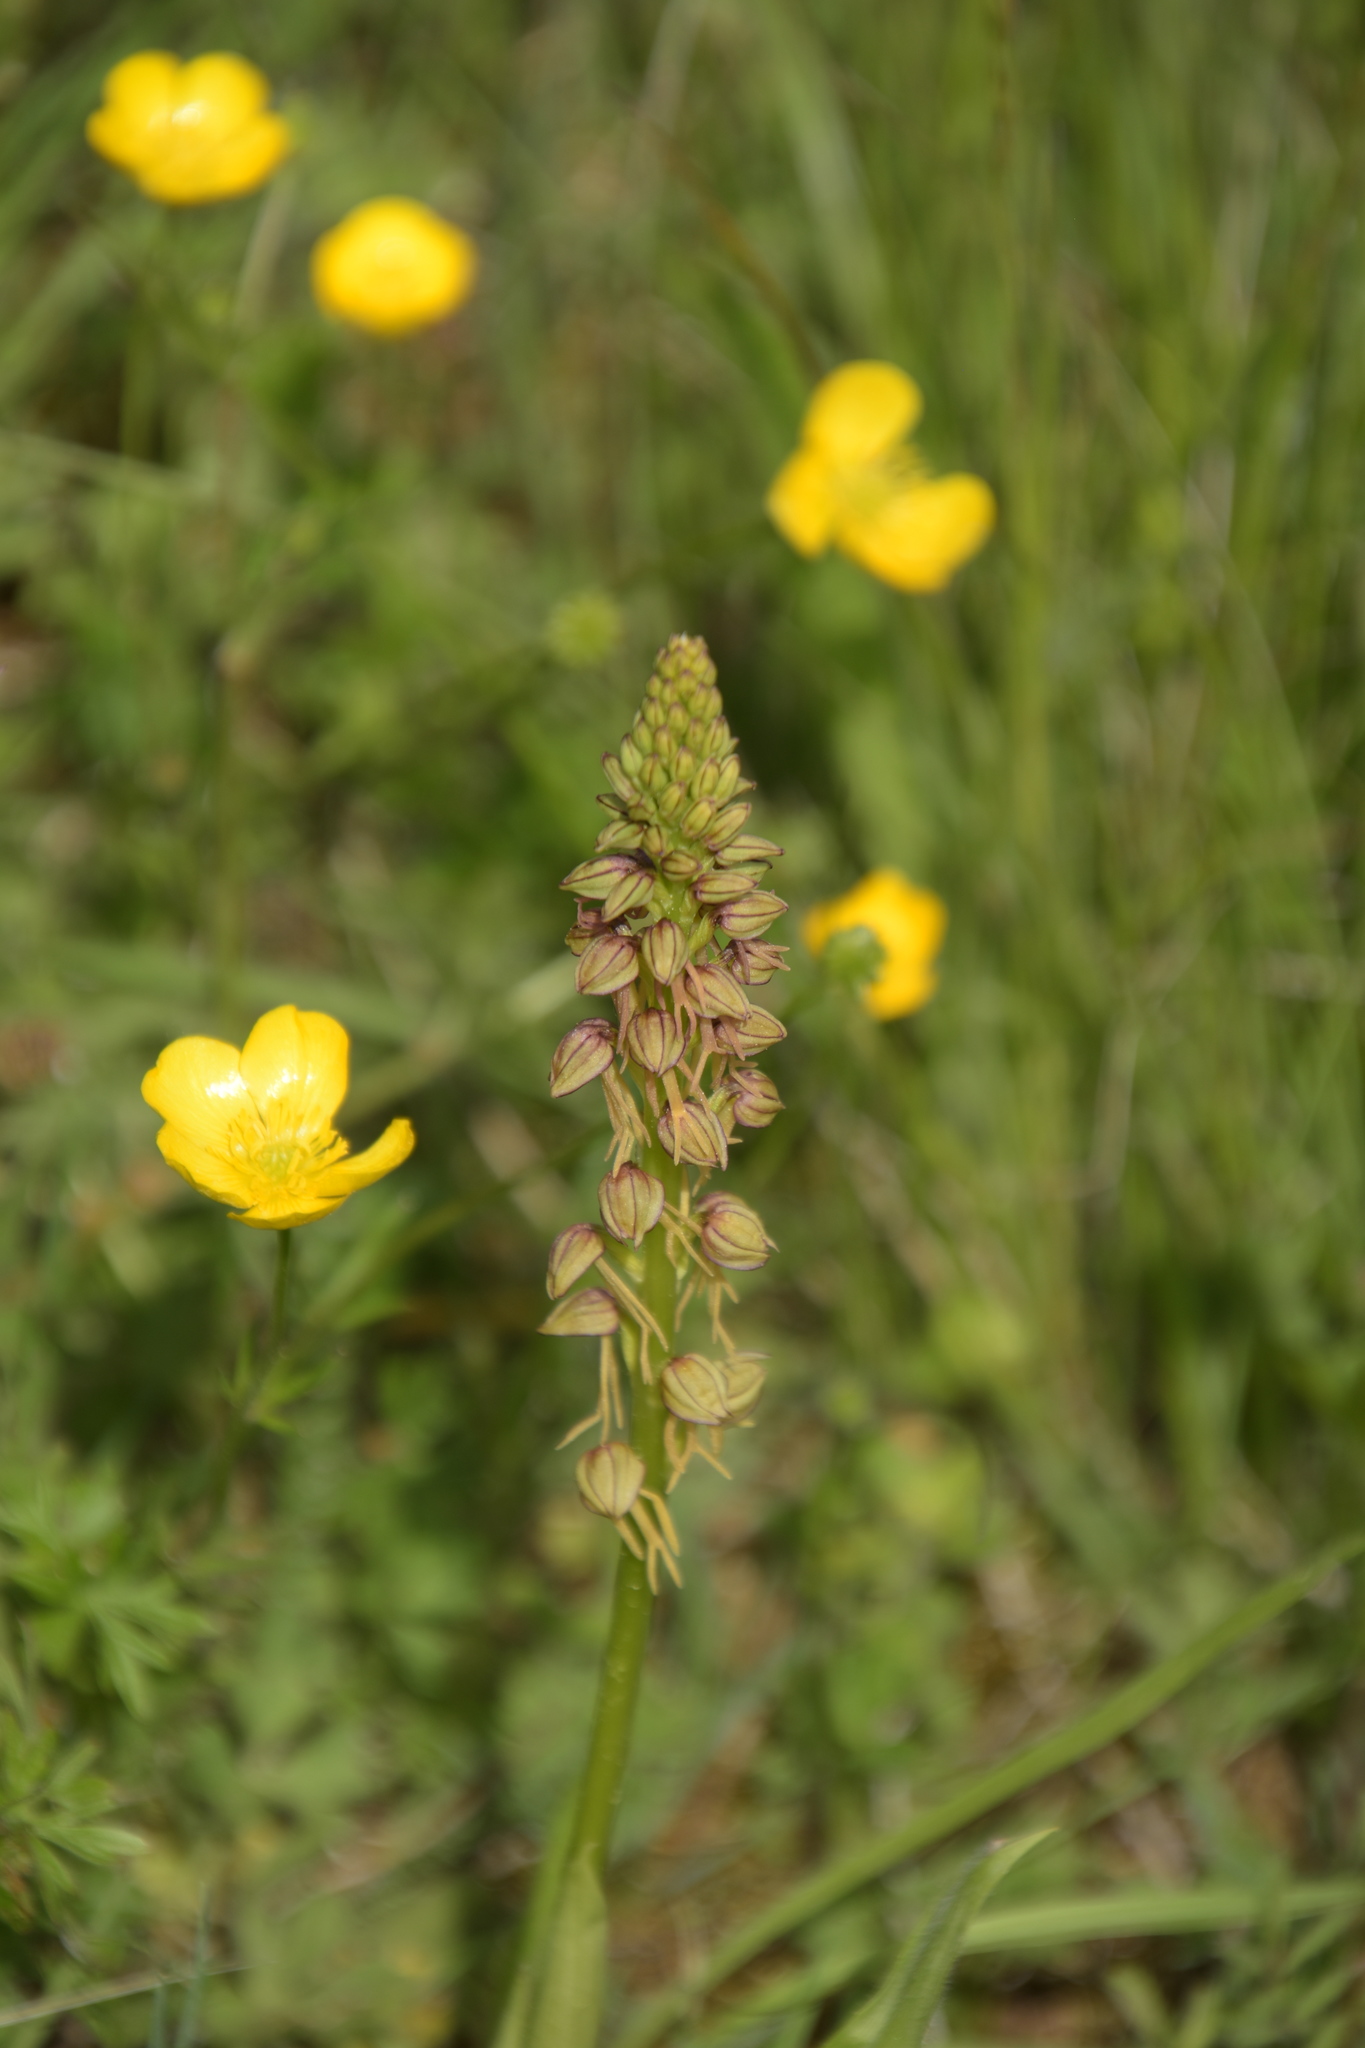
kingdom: Plantae
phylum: Tracheophyta
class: Liliopsida
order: Asparagales
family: Orchidaceae
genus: Orchis
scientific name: Orchis anthropophora
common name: Man orchid
